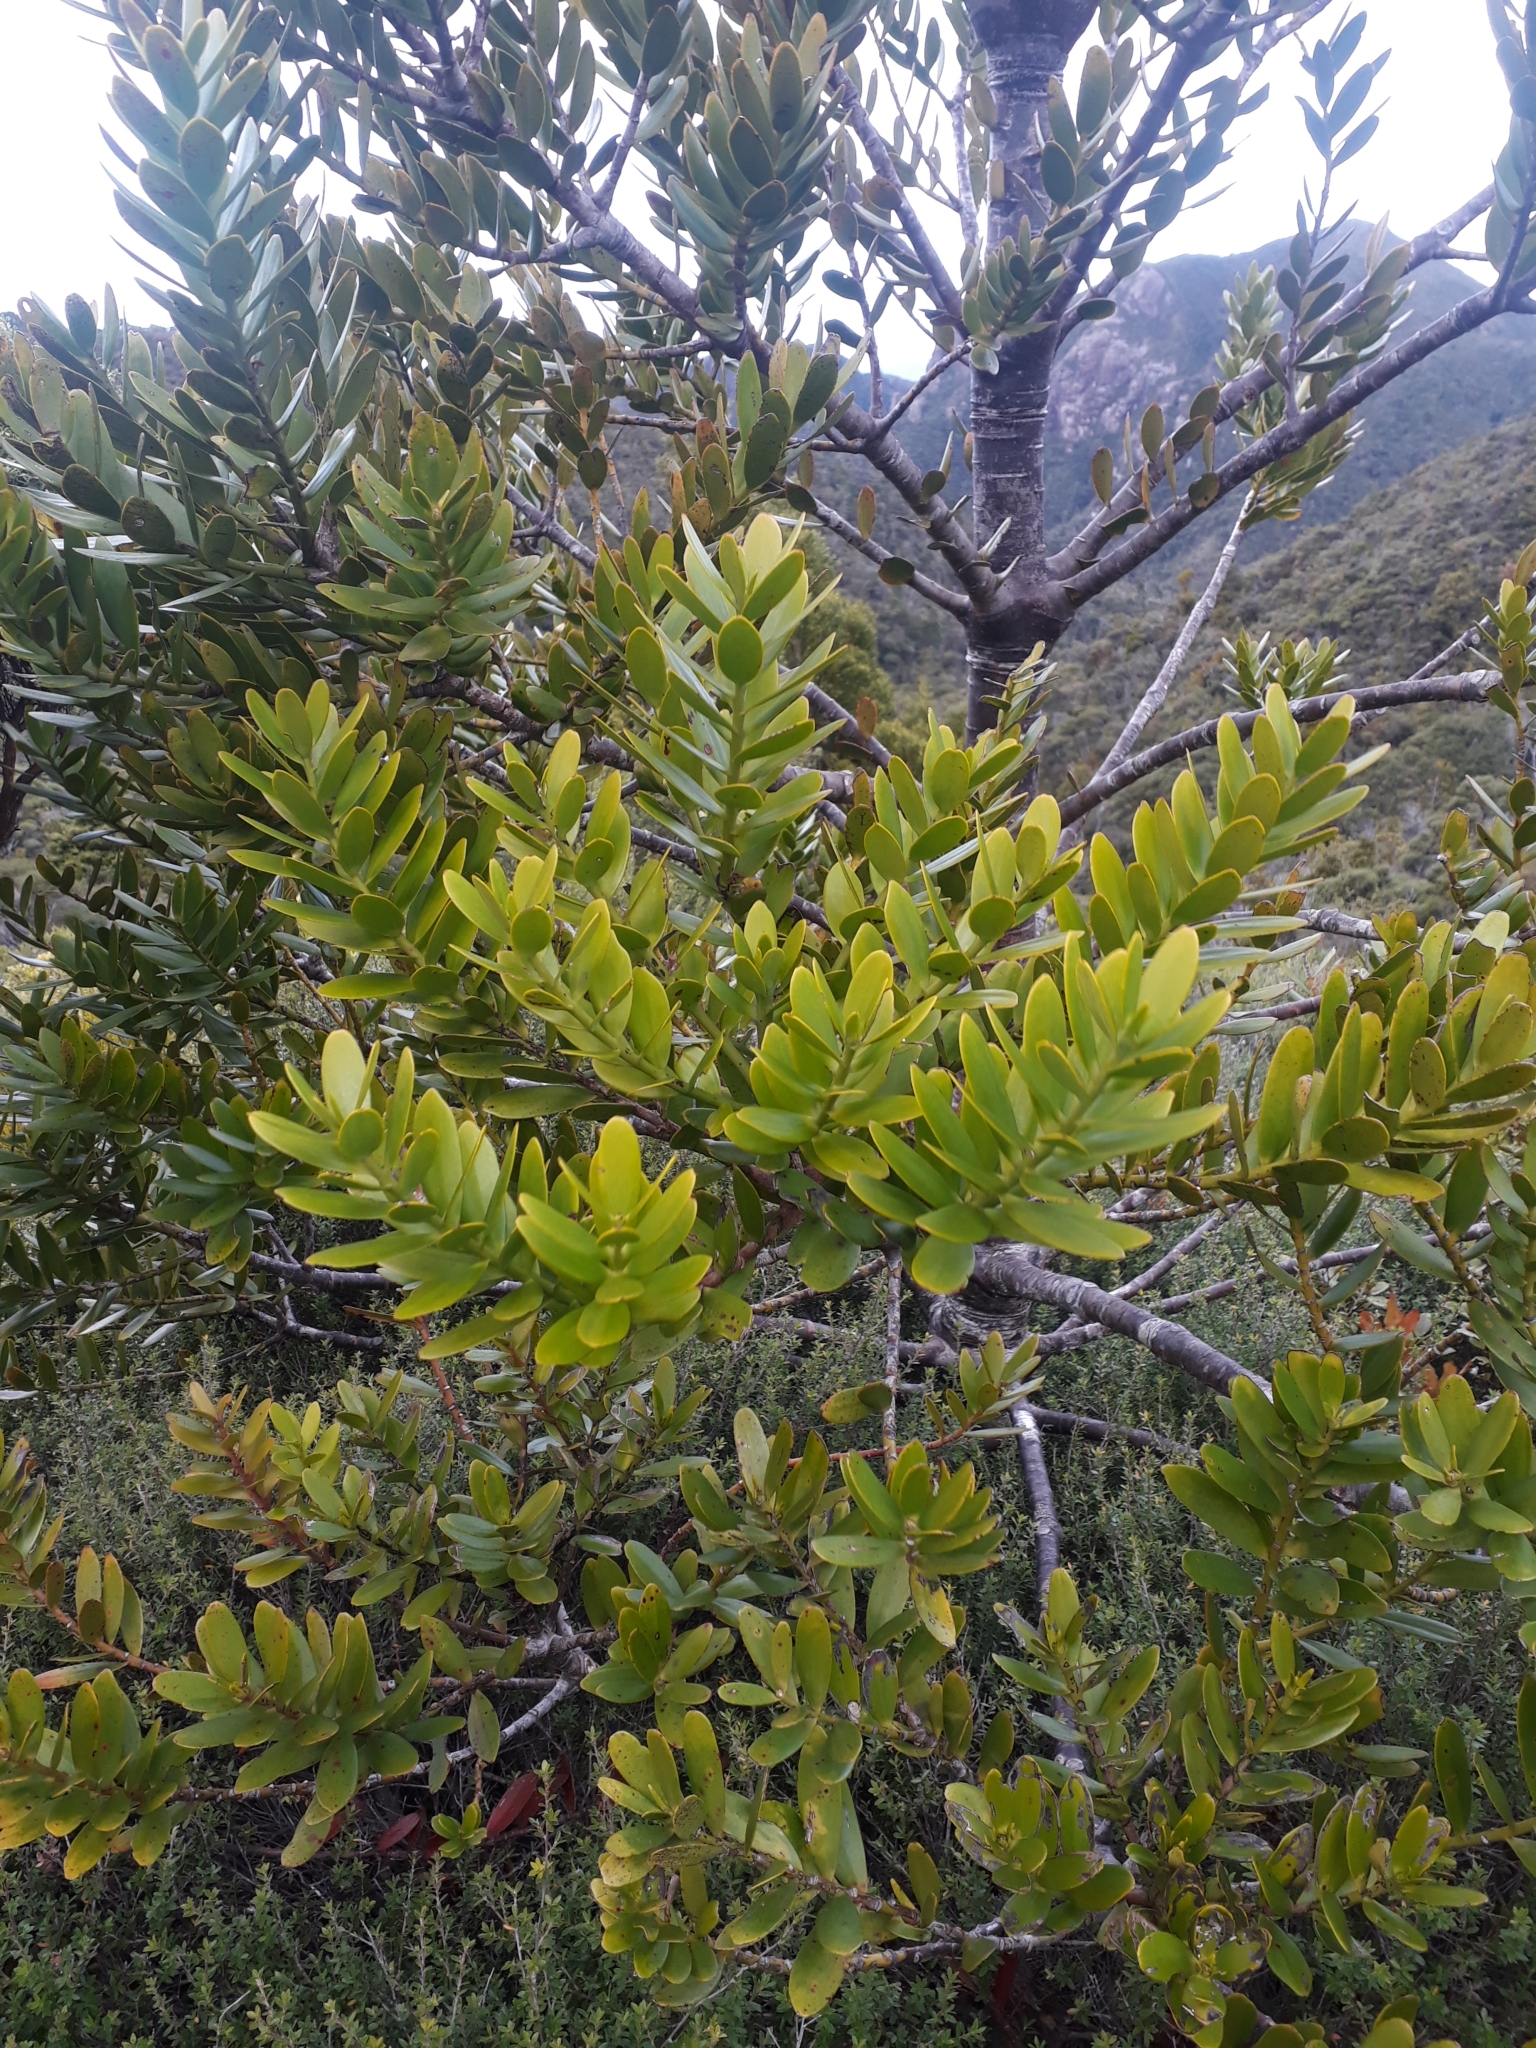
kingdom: Plantae
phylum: Tracheophyta
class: Pinopsida
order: Pinales
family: Araucariaceae
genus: Agathis
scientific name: Agathis australis
